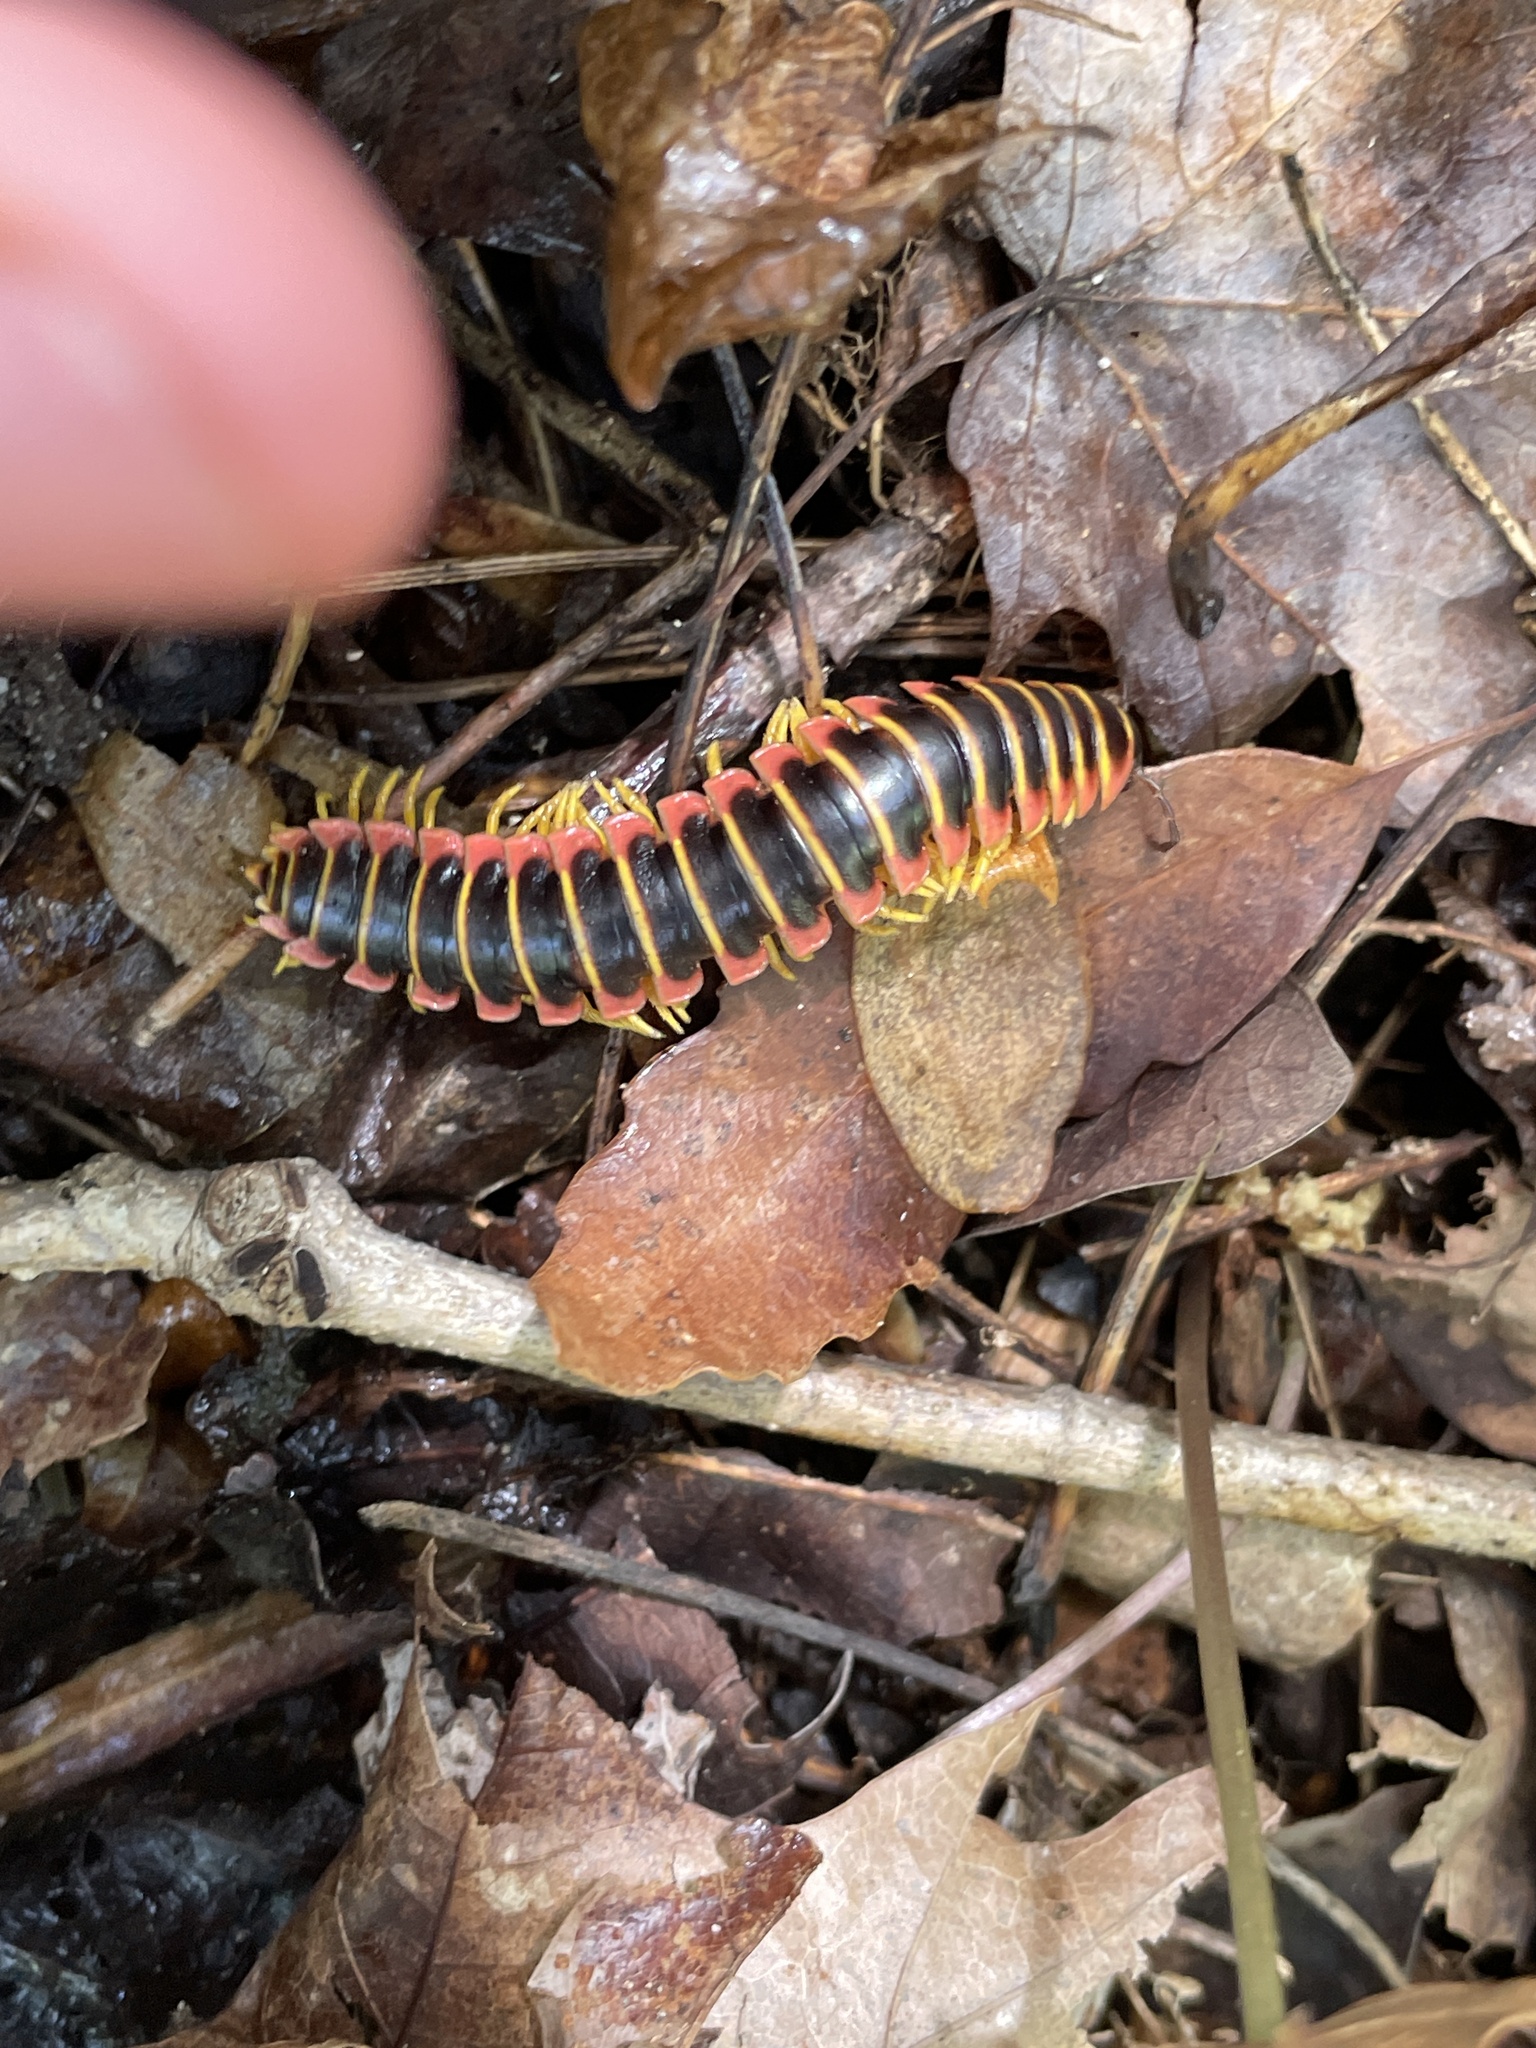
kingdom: Animalia
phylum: Arthropoda
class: Diplopoda
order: Polydesmida
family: Xystodesmidae
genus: Apheloria
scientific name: Apheloria virginiensis
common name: Black-and-gold flat millipede
